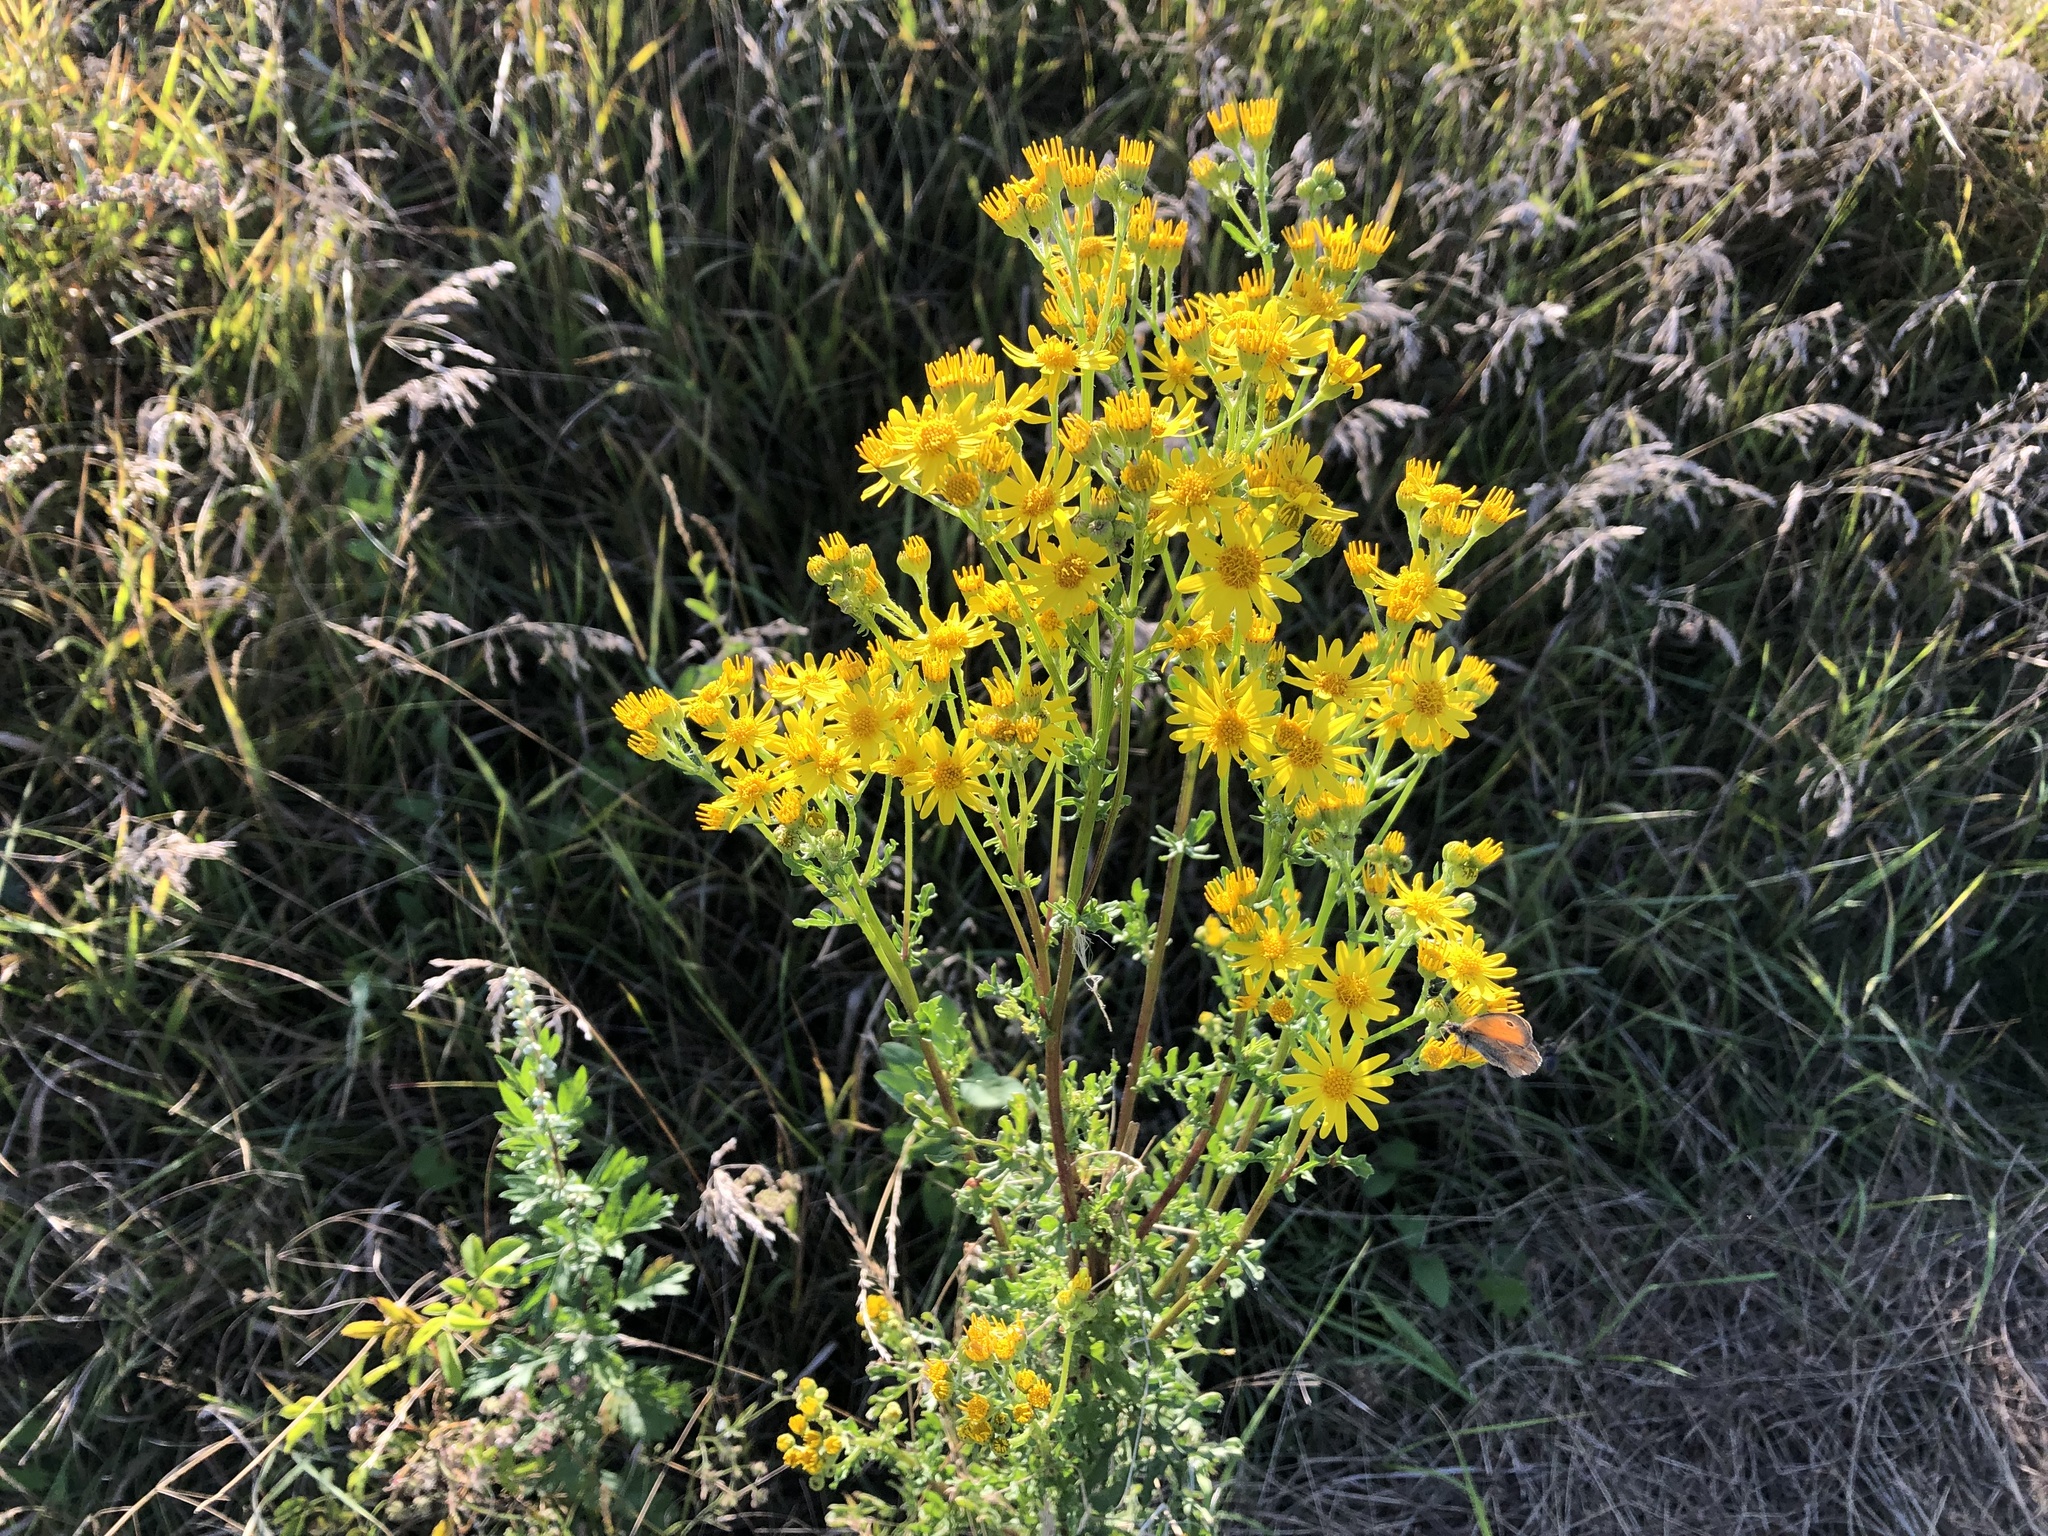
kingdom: Plantae
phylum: Tracheophyta
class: Magnoliopsida
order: Asterales
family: Asteraceae
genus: Jacobaea
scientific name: Jacobaea vulgaris
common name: Stinking willie
